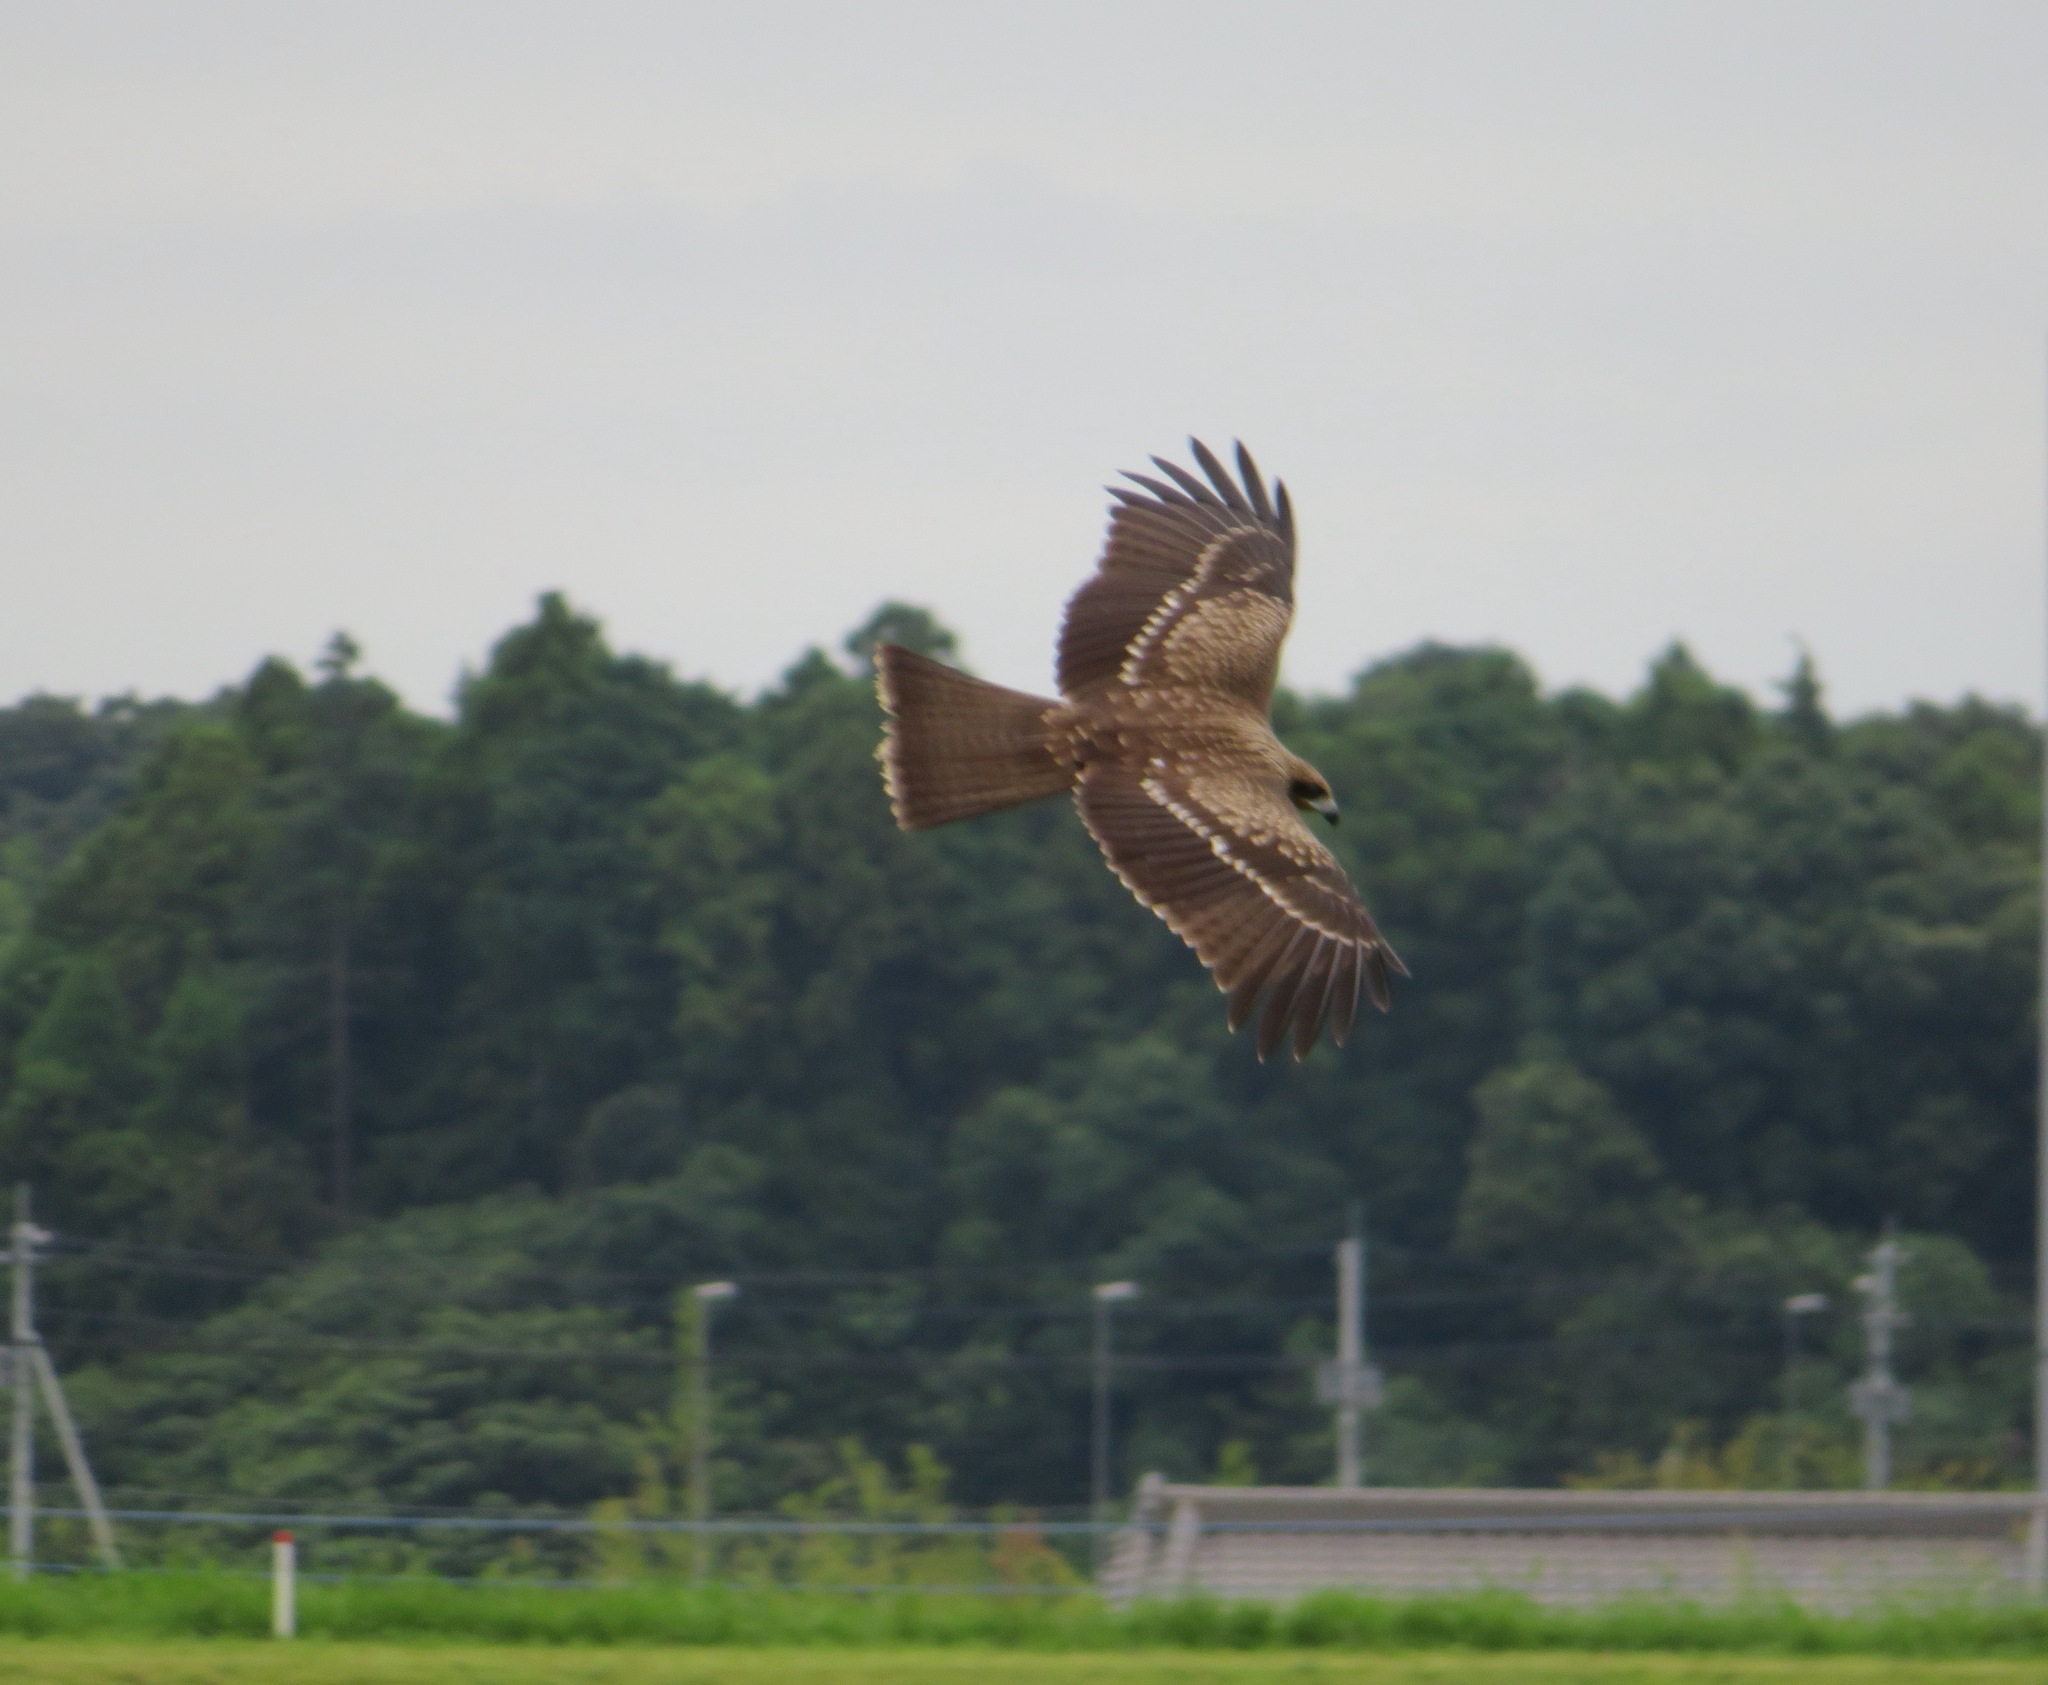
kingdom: Animalia
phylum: Chordata
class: Aves
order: Accipitriformes
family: Accipitridae
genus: Milvus
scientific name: Milvus migrans
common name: Black kite
